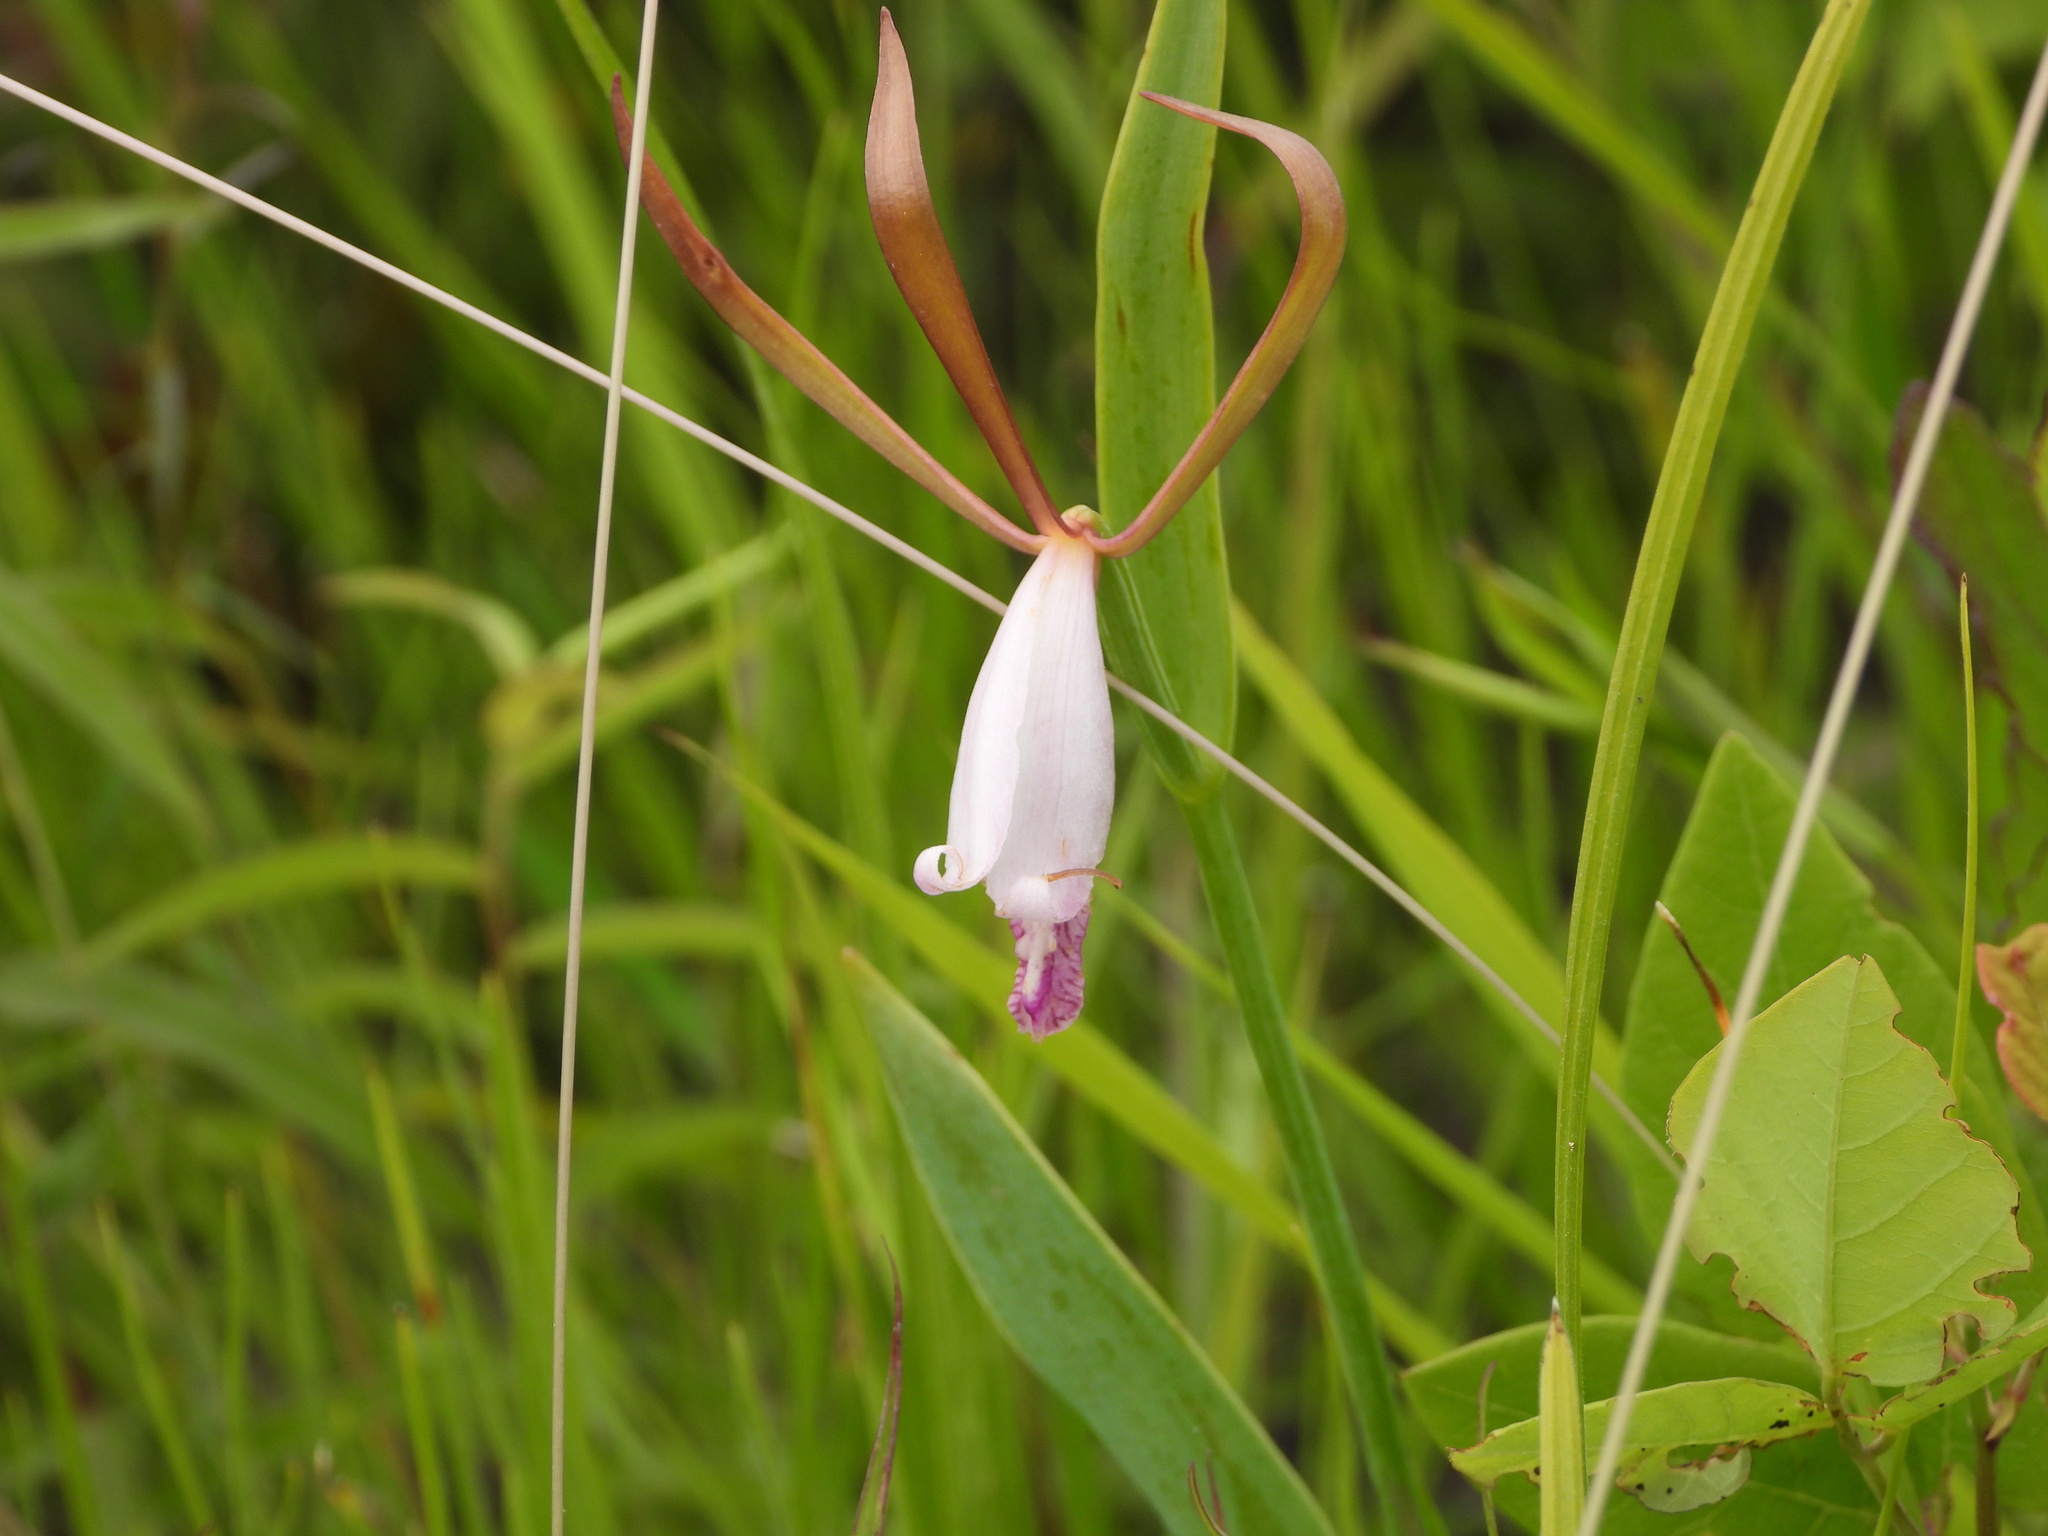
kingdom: Plantae
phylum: Tracheophyta
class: Liliopsida
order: Asparagales
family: Orchidaceae
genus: Cleistesiopsis
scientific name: Cleistesiopsis bifaria
